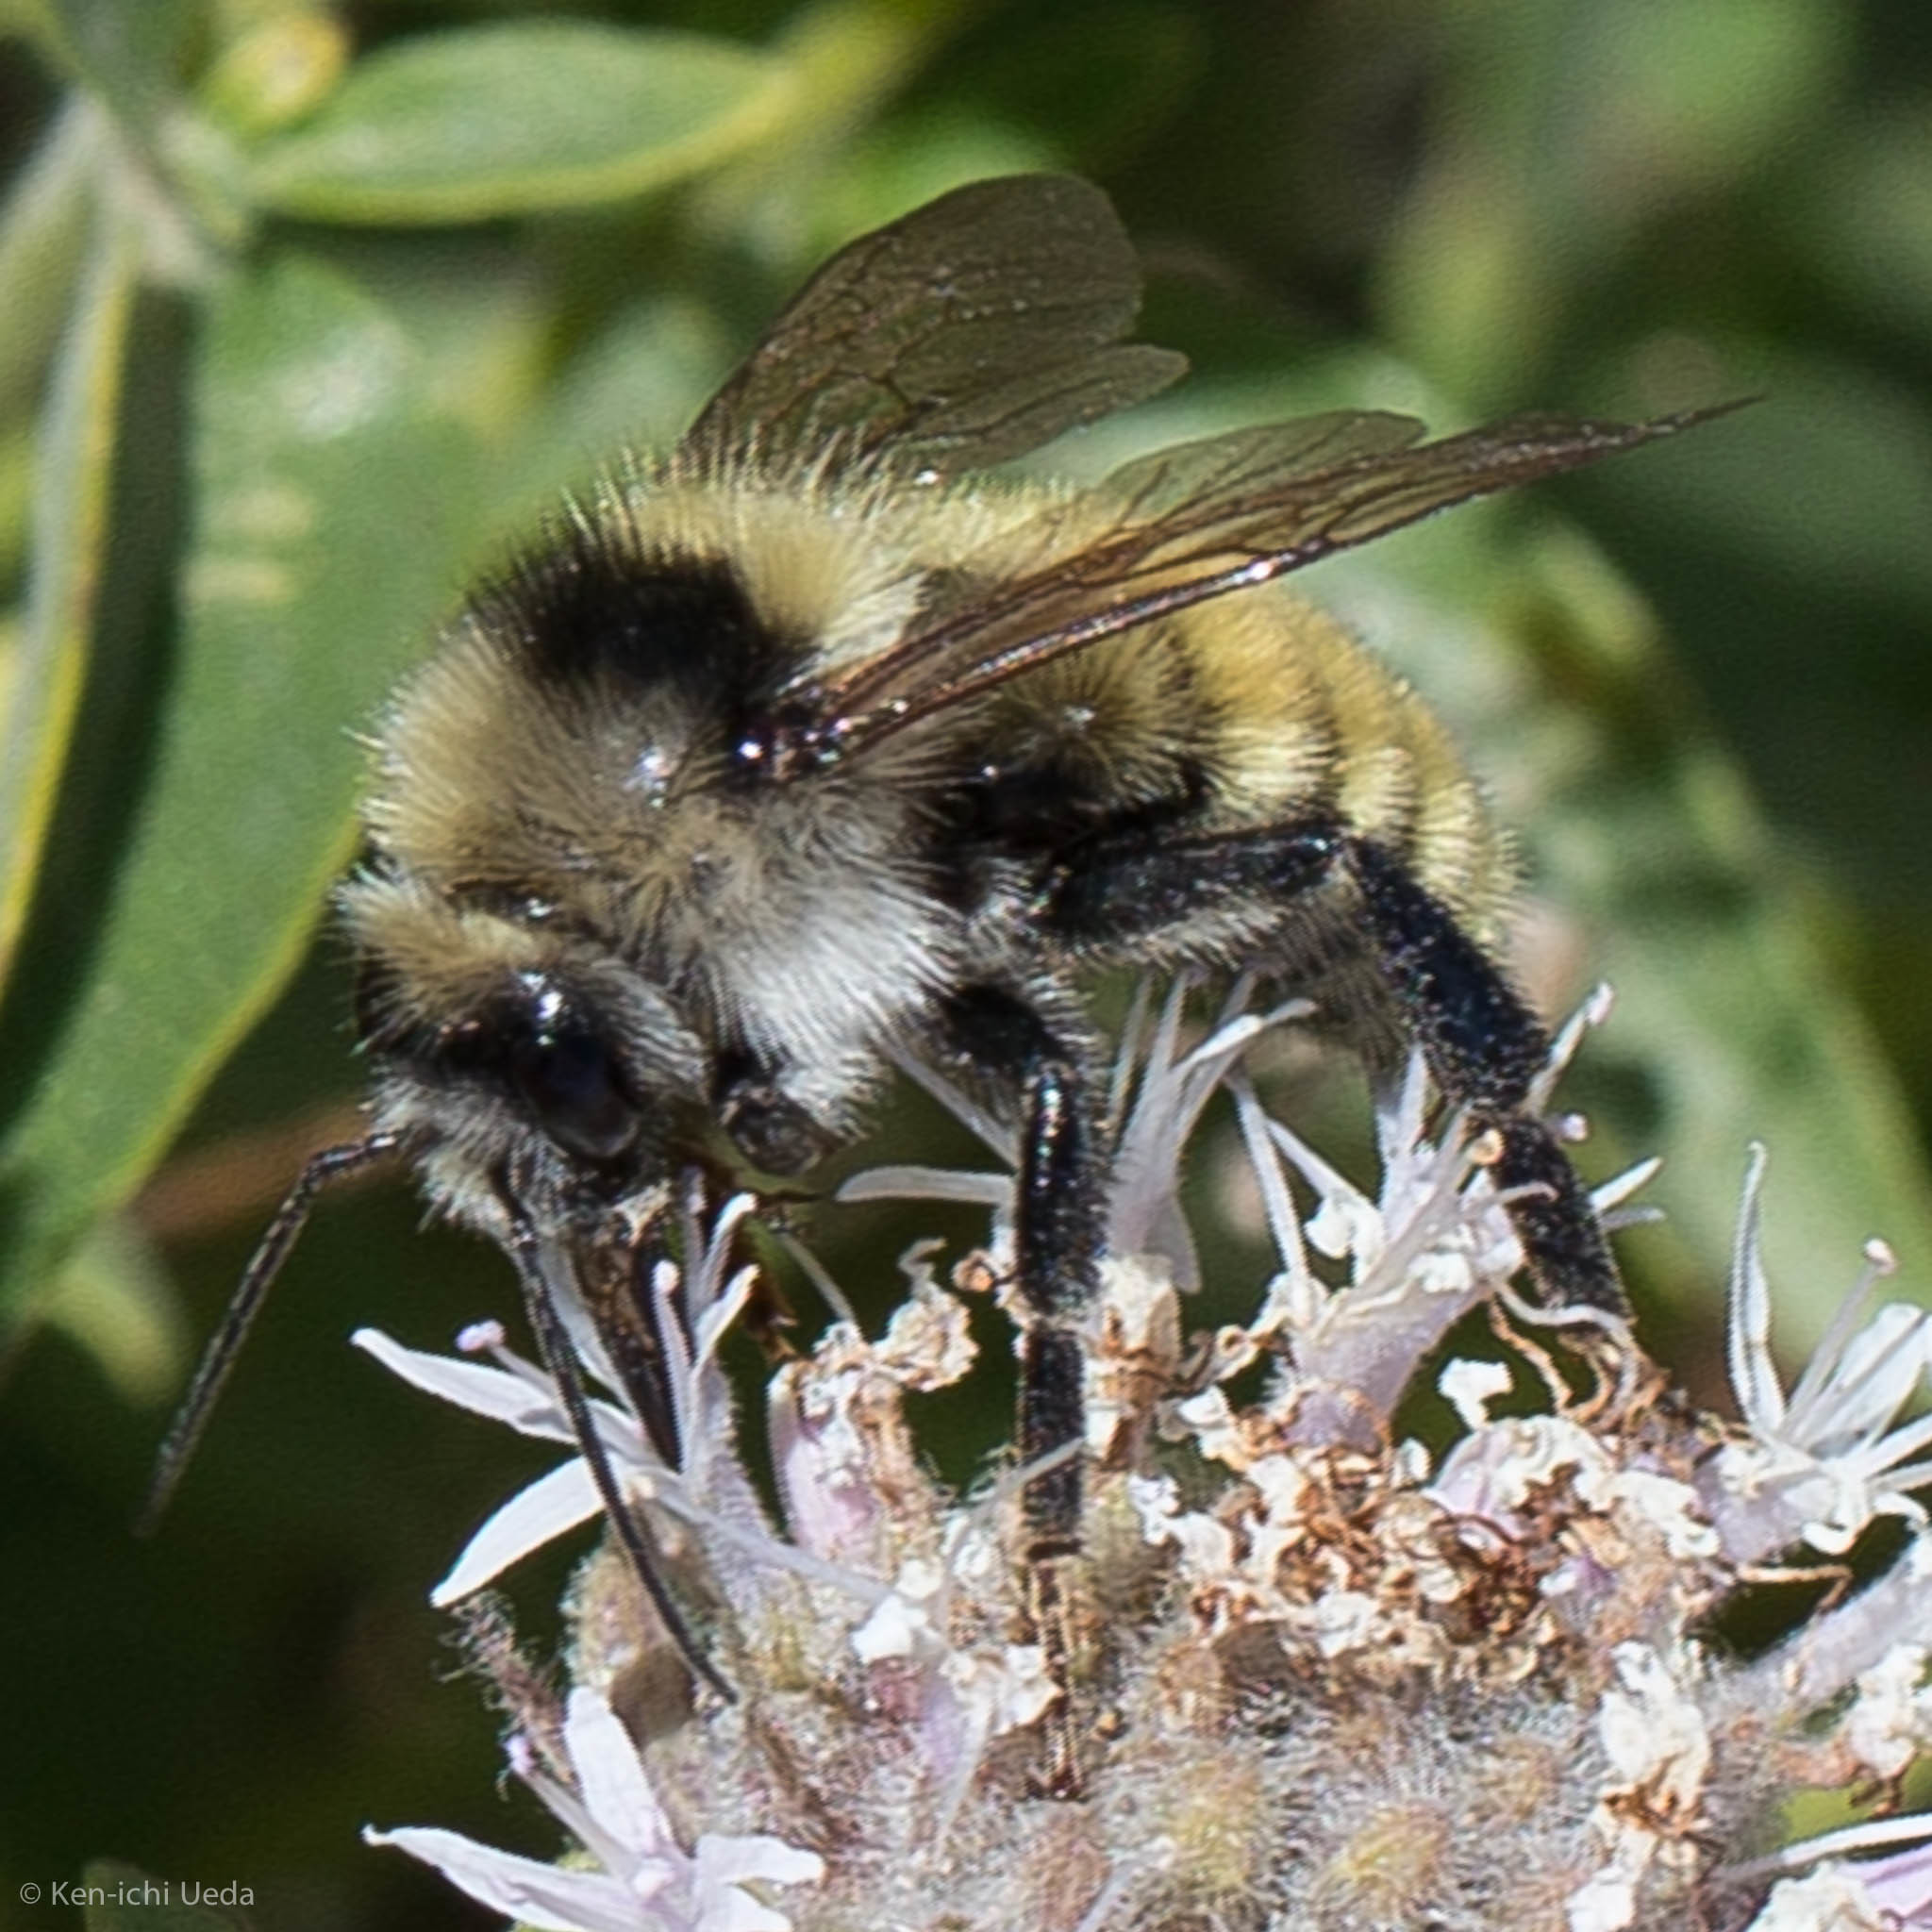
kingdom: Animalia
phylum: Arthropoda
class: Insecta
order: Hymenoptera
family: Apidae
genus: Bombus
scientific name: Bombus appositus
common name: White-shouldered bumble bee
